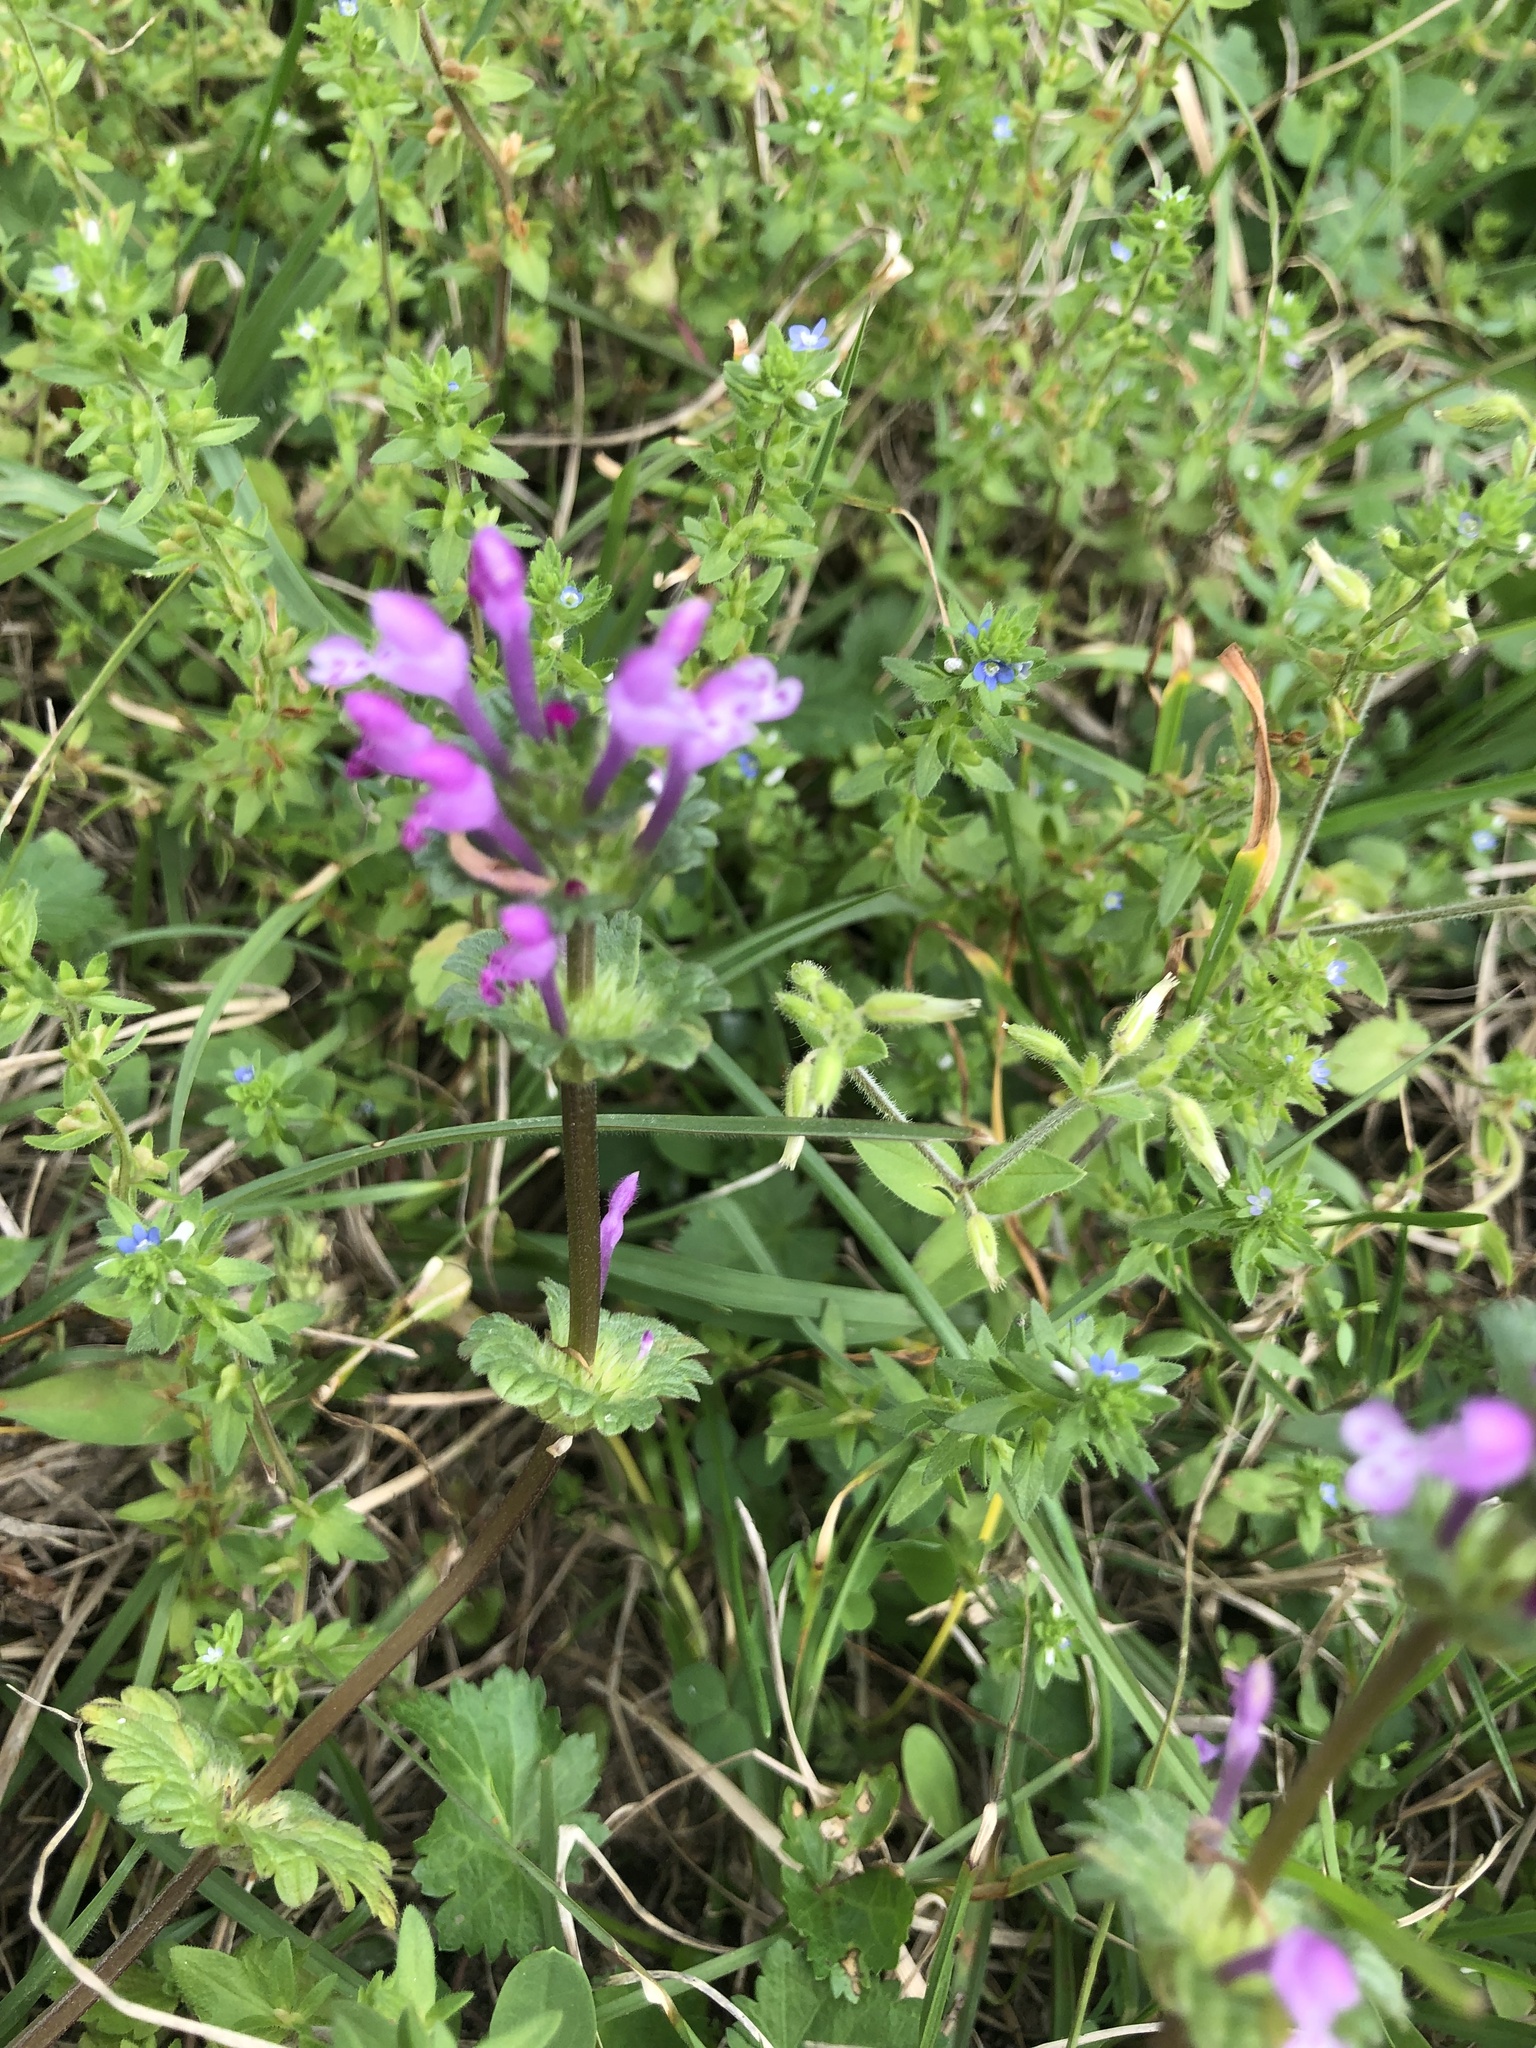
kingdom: Plantae
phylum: Tracheophyta
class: Magnoliopsida
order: Lamiales
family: Lamiaceae
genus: Lamium
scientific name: Lamium amplexicaule
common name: Henbit dead-nettle
